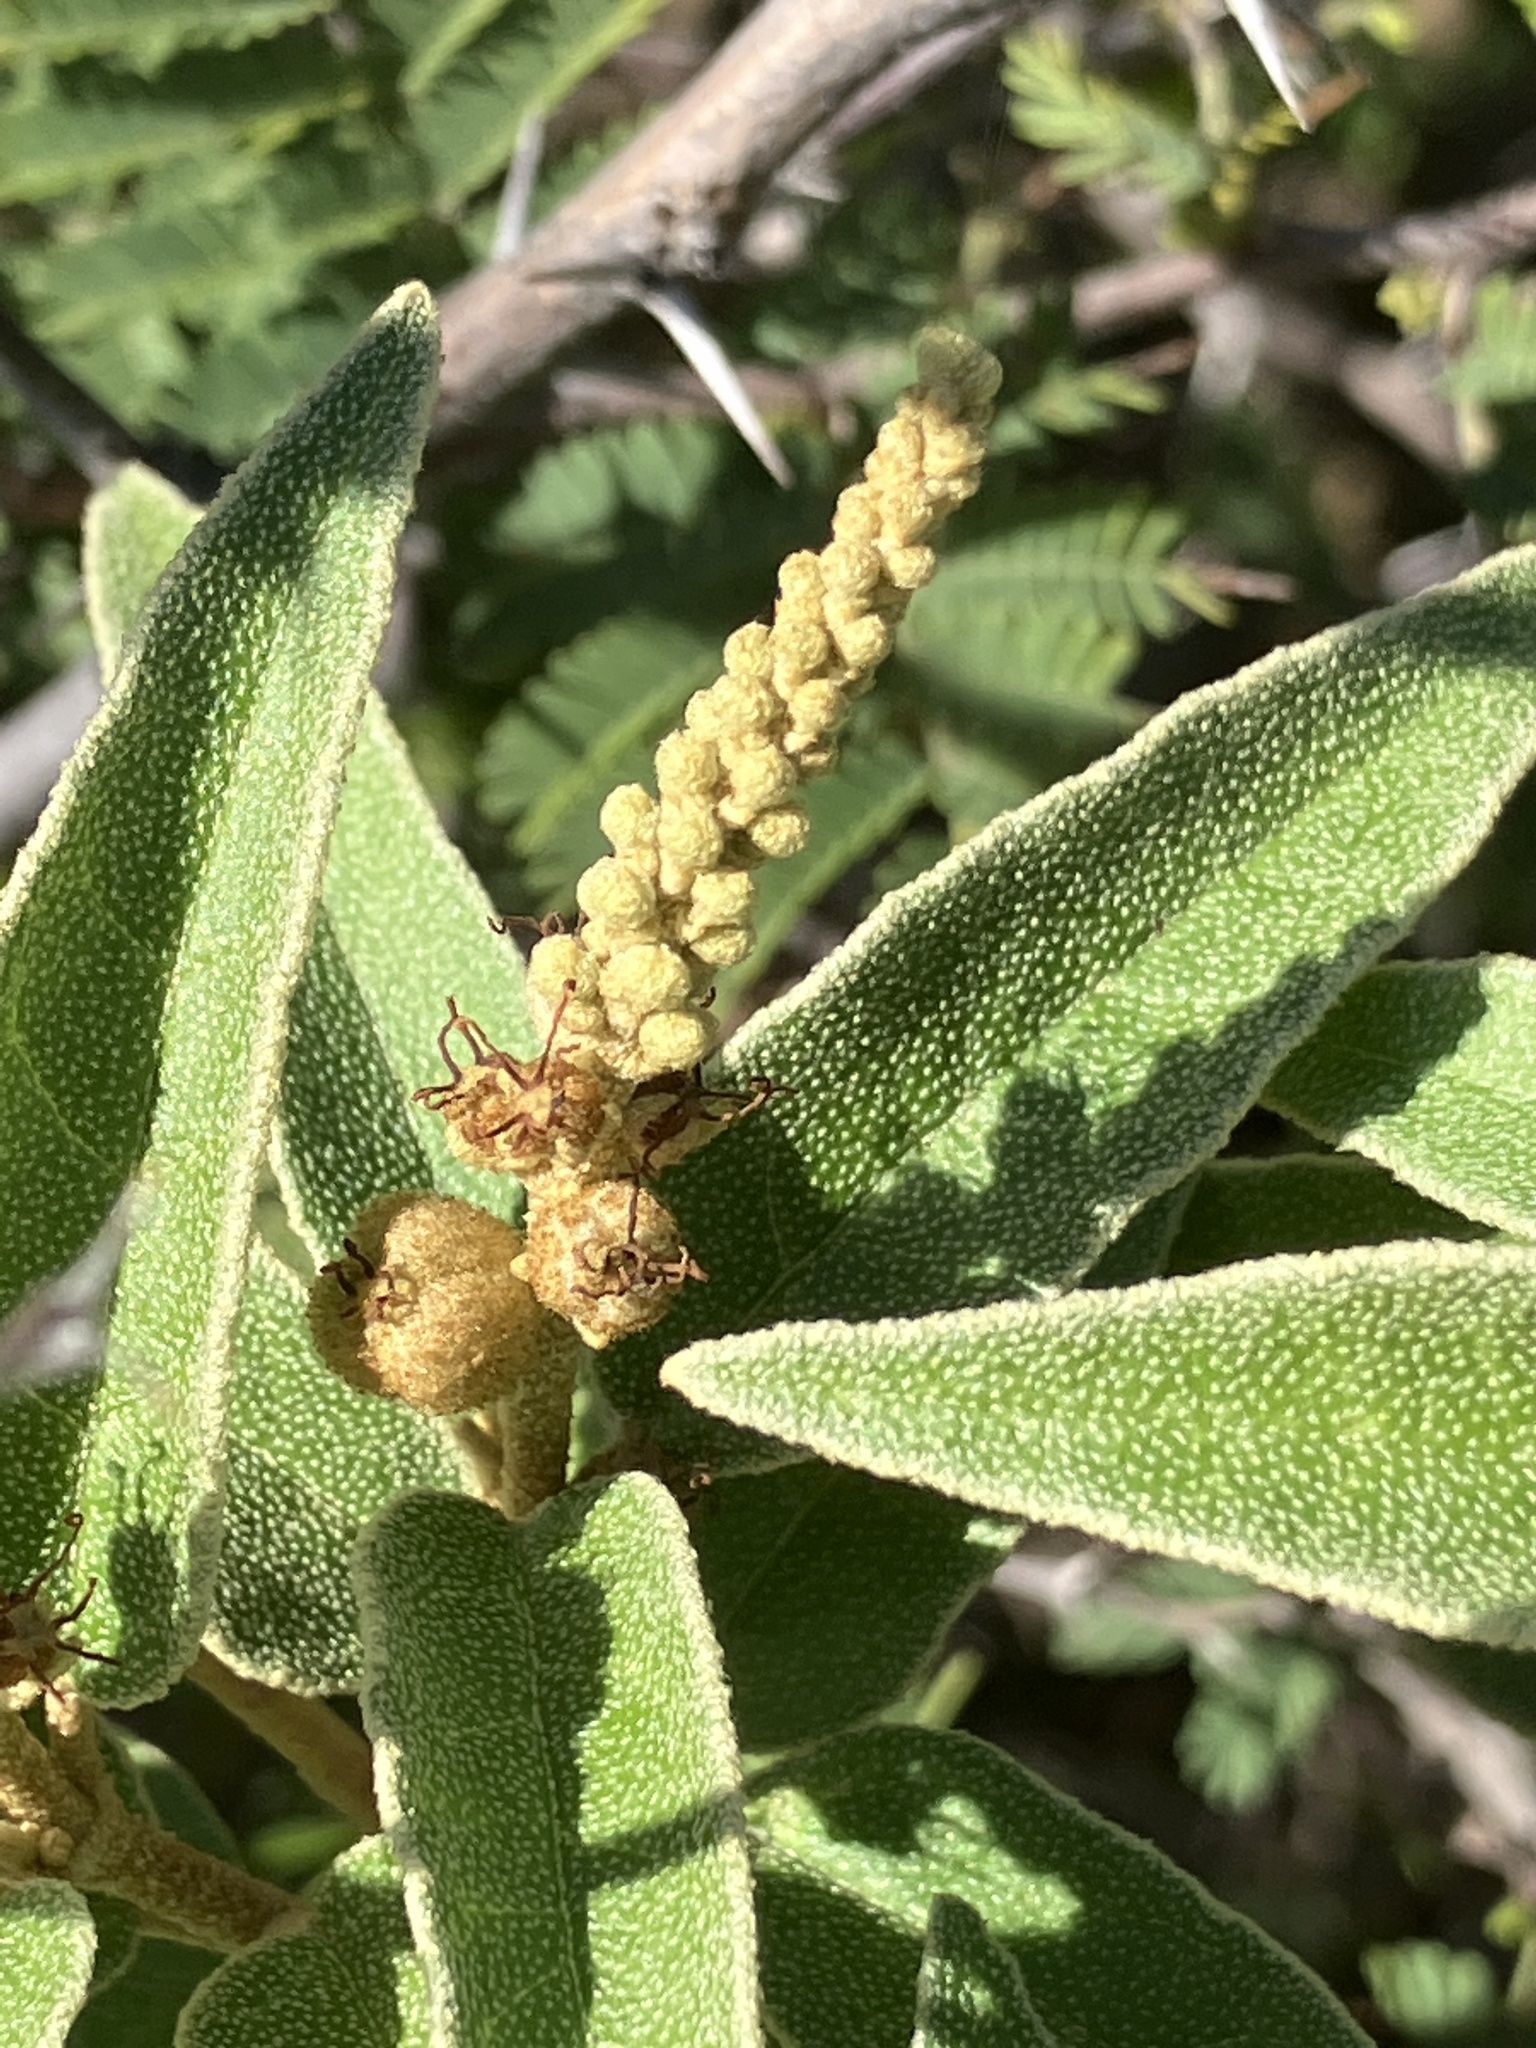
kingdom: Plantae
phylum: Tracheophyta
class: Magnoliopsida
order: Malpighiales
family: Euphorbiaceae
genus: Croton
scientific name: Croton flavens
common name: Yellow balsam
